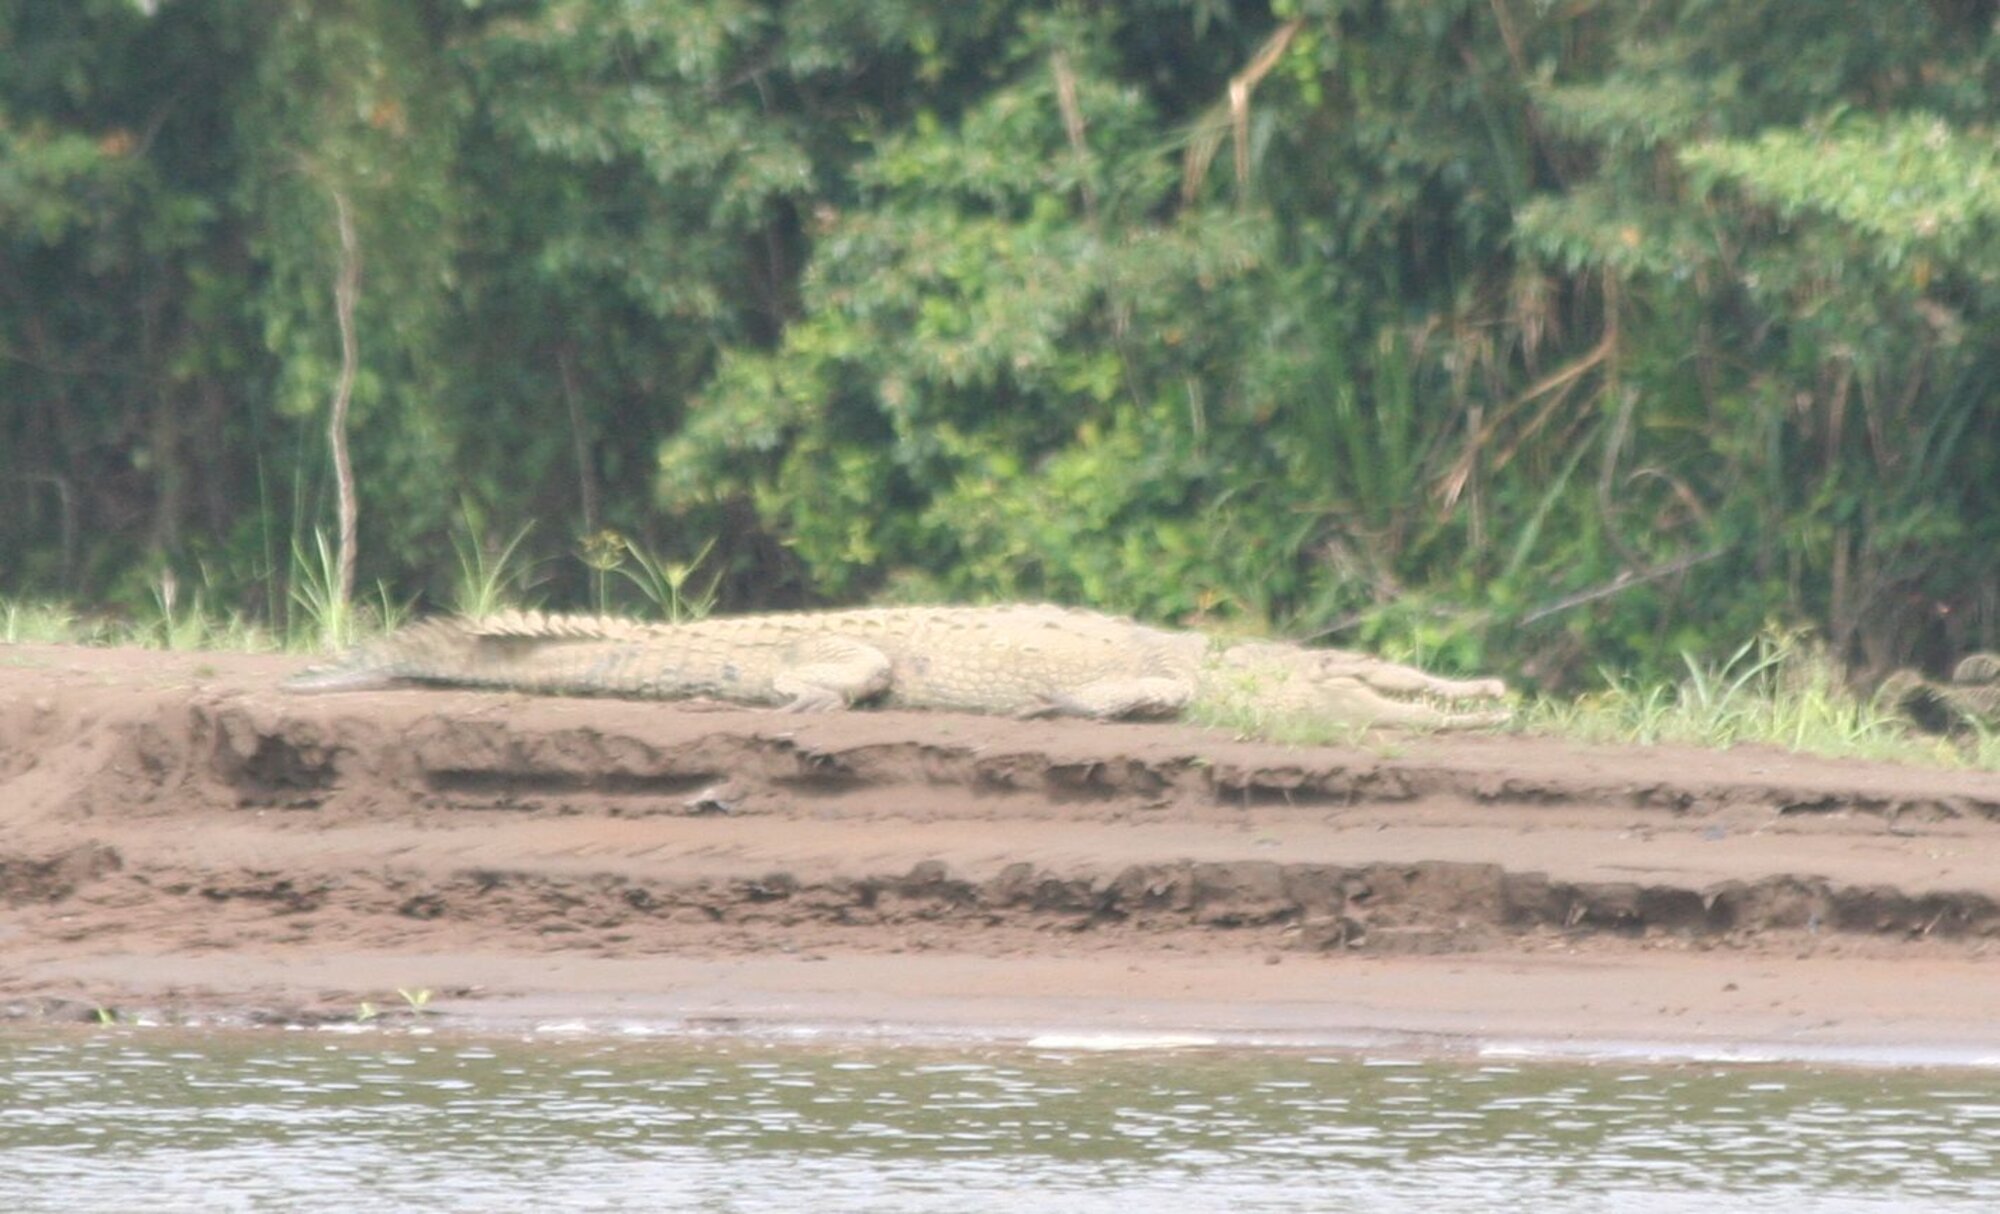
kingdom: Animalia
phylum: Chordata
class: Crocodylia
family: Crocodylidae
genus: Crocodylus
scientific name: Crocodylus acutus
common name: American crocodile
